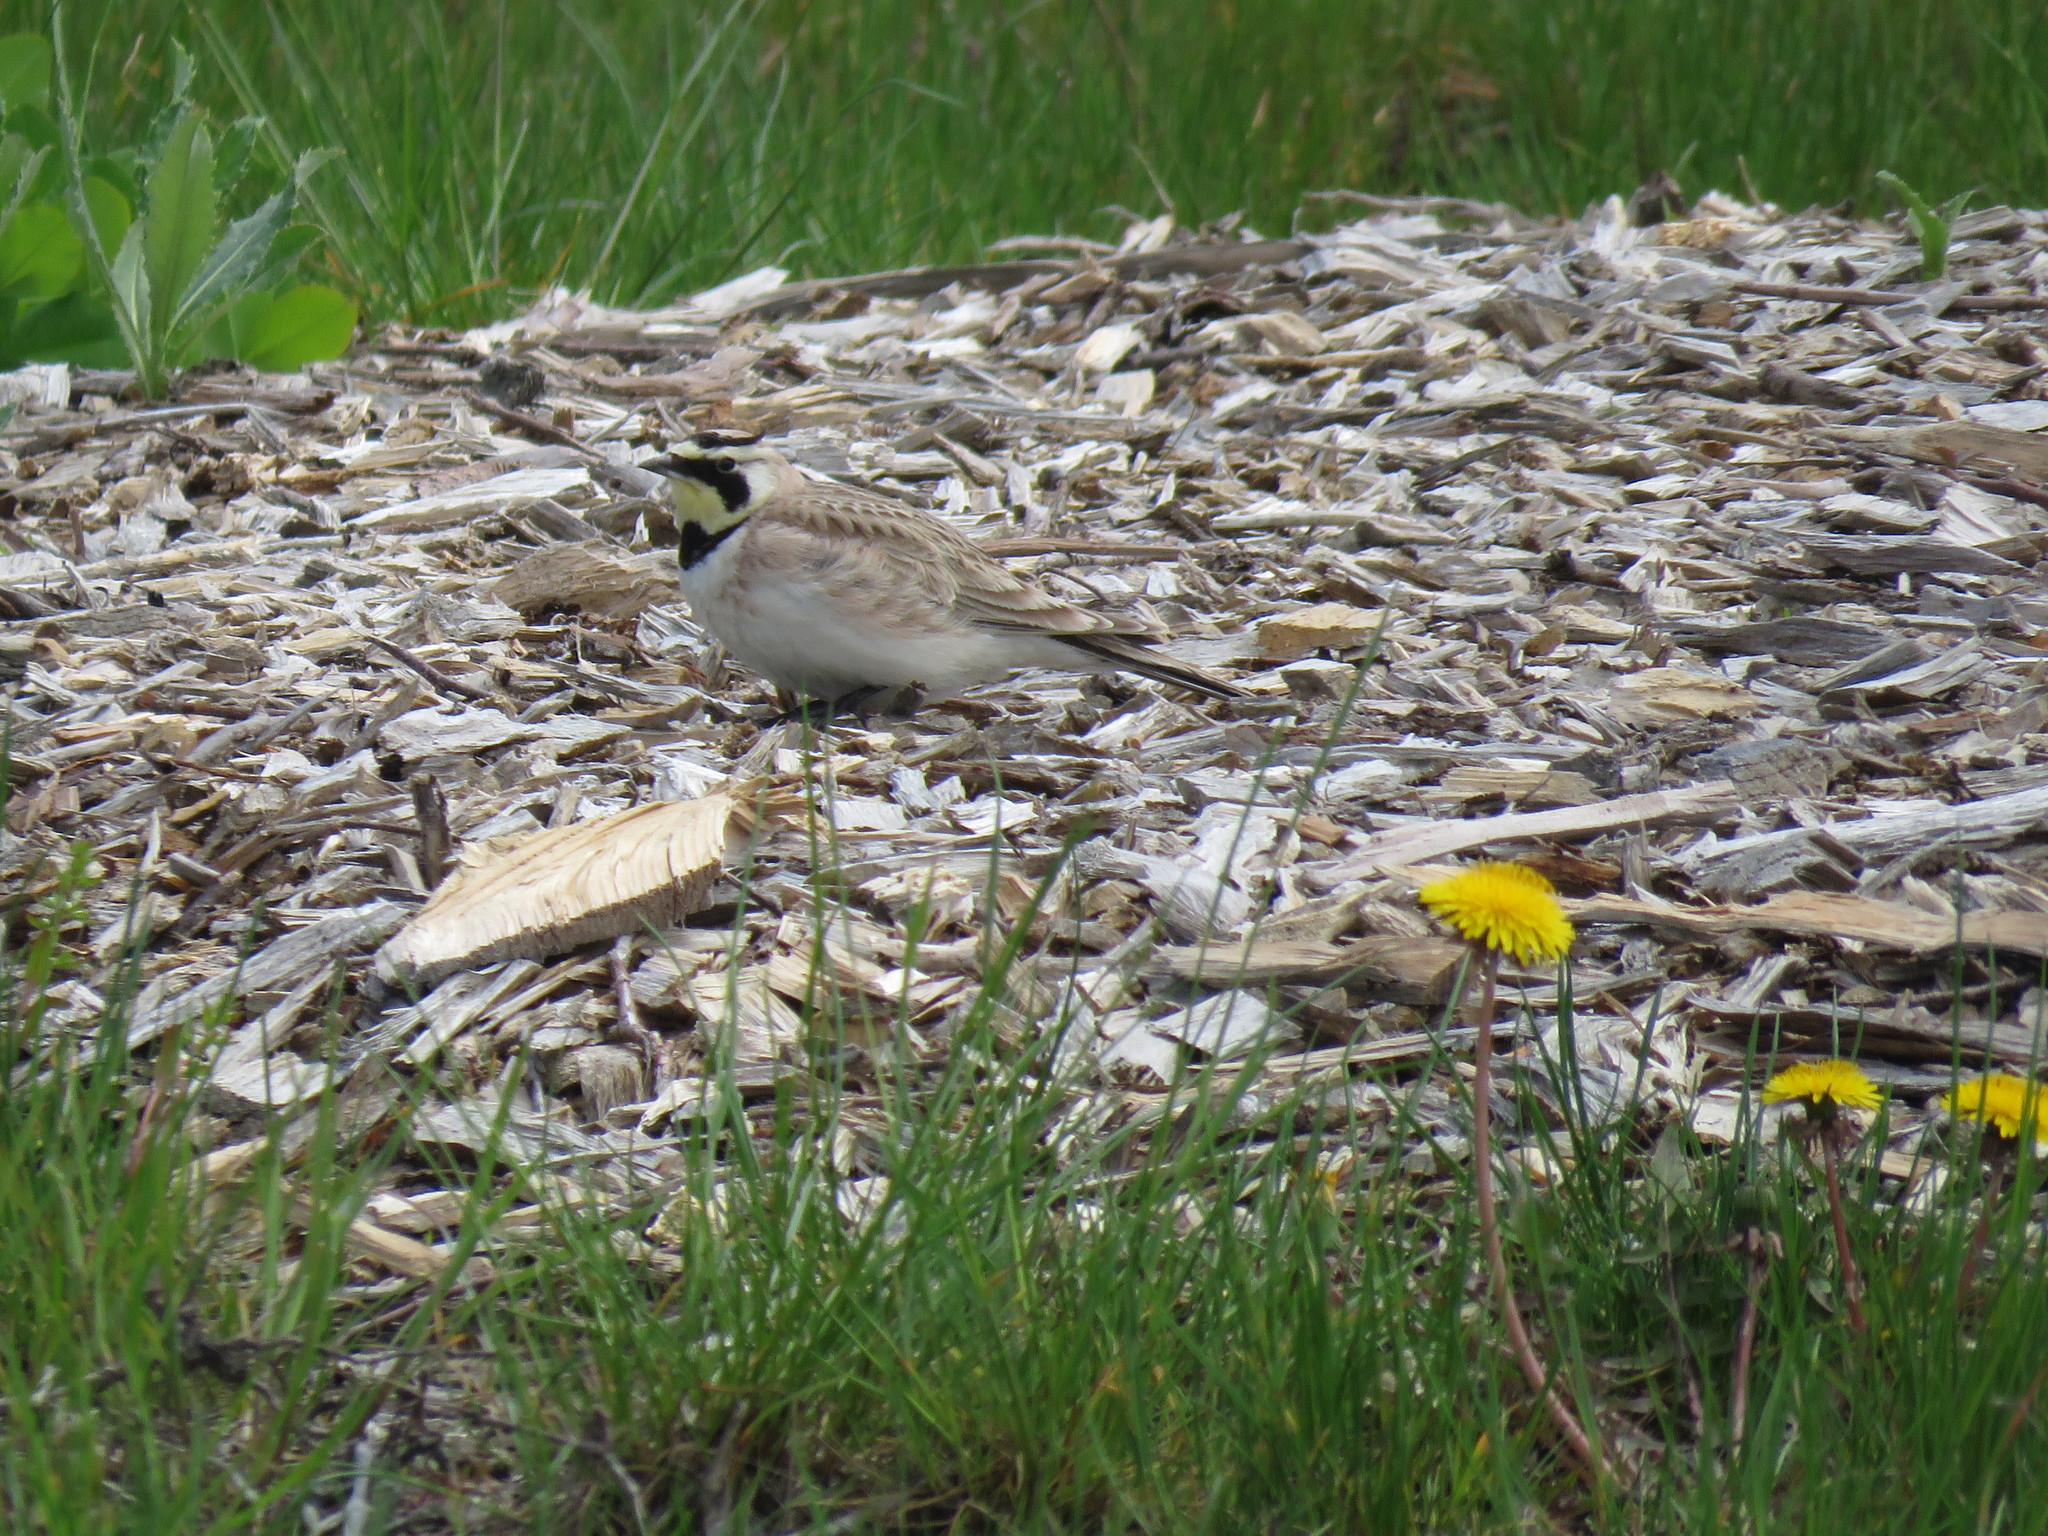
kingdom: Animalia
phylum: Chordata
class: Aves
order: Passeriformes
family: Alaudidae
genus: Eremophila
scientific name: Eremophila alpestris
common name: Horned lark
